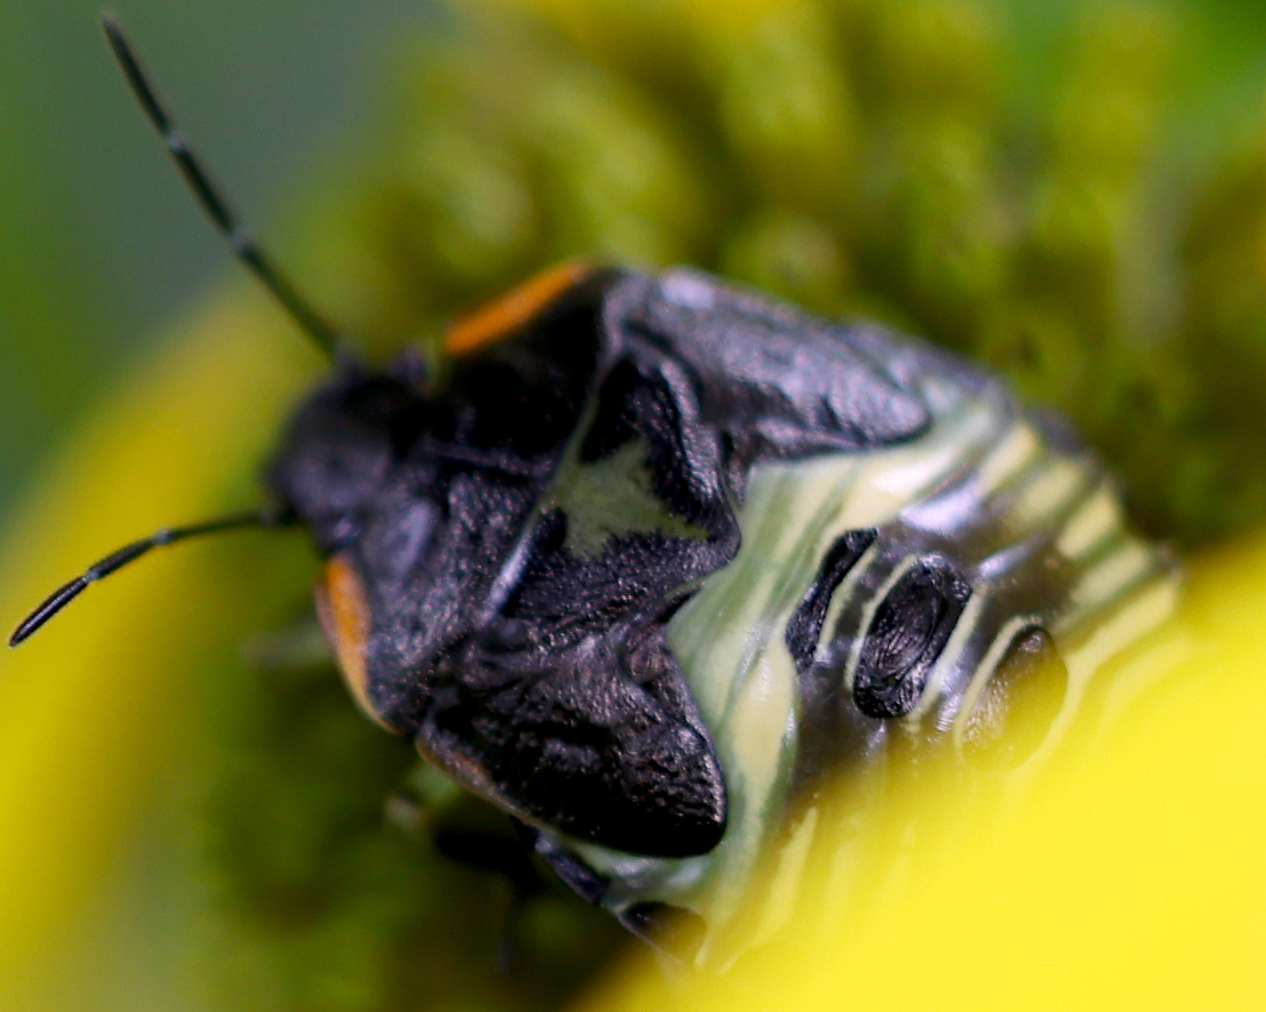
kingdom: Animalia
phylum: Arthropoda
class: Insecta
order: Hemiptera
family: Pentatomidae
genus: Chinavia
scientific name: Chinavia hilaris
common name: Green stink bug
